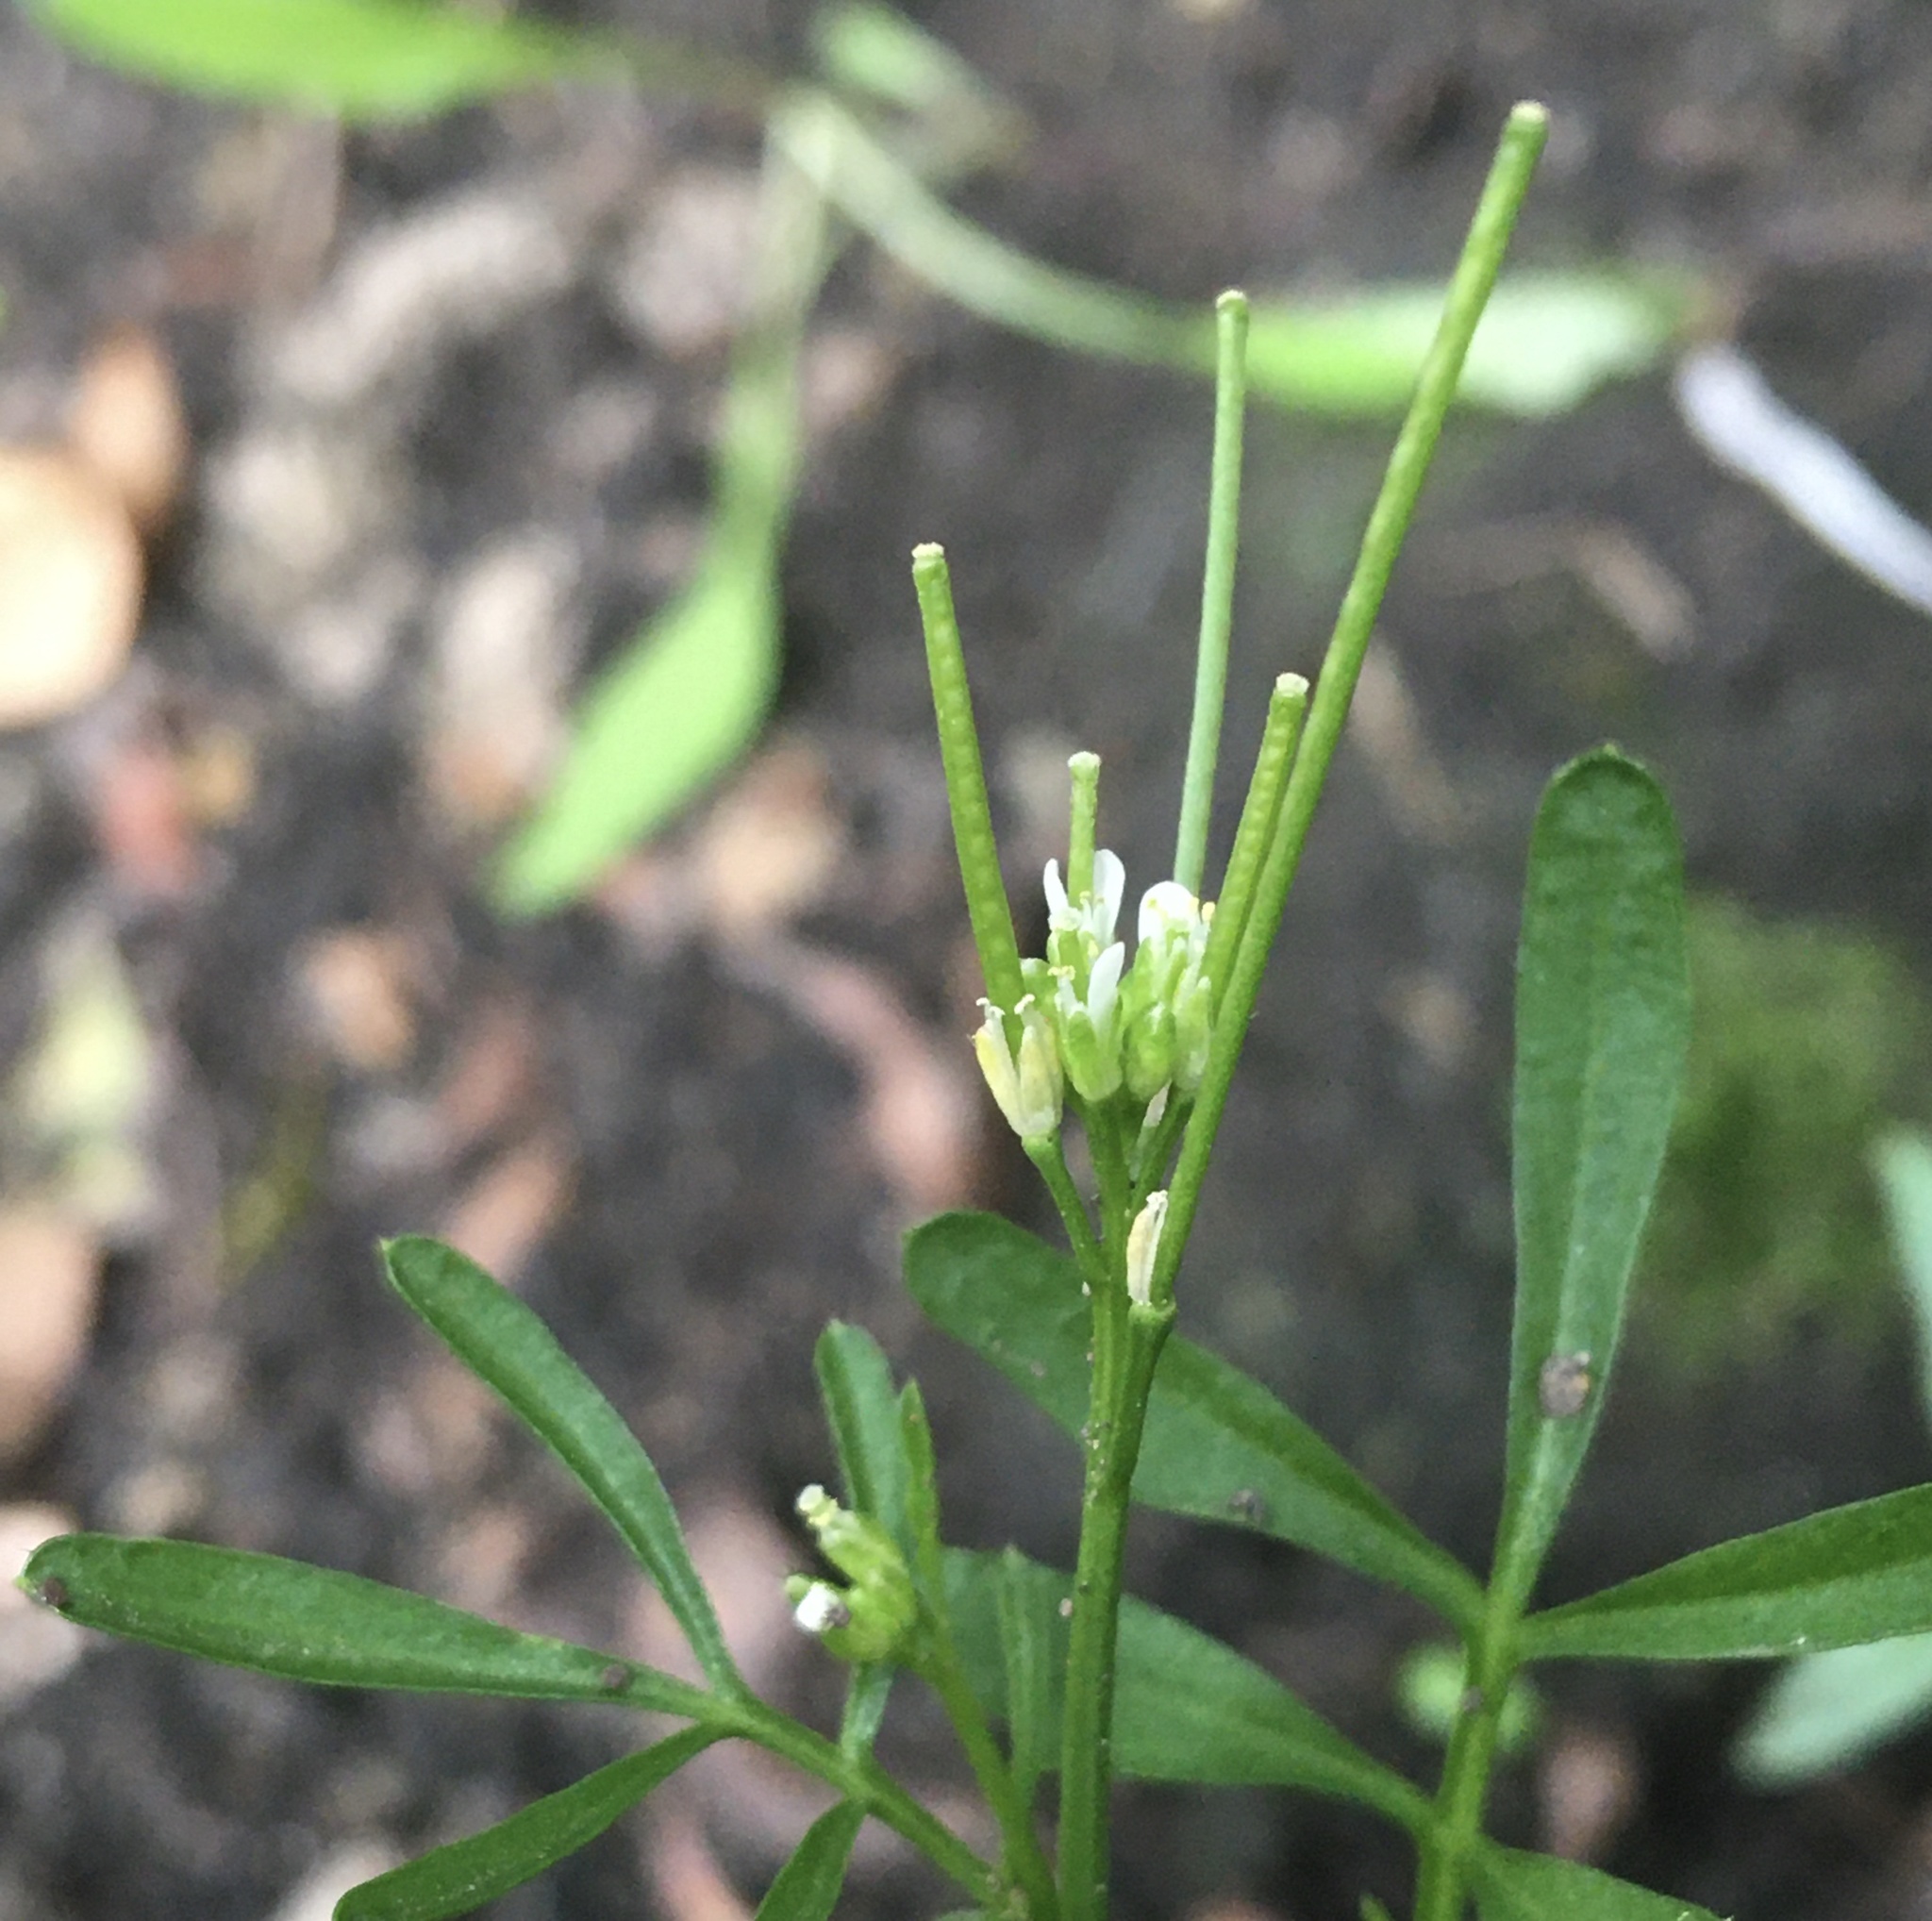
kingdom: Plantae
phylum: Tracheophyta
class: Magnoliopsida
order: Brassicales
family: Brassicaceae
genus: Cardamine
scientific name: Cardamine hirsuta
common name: Hairy bittercress
